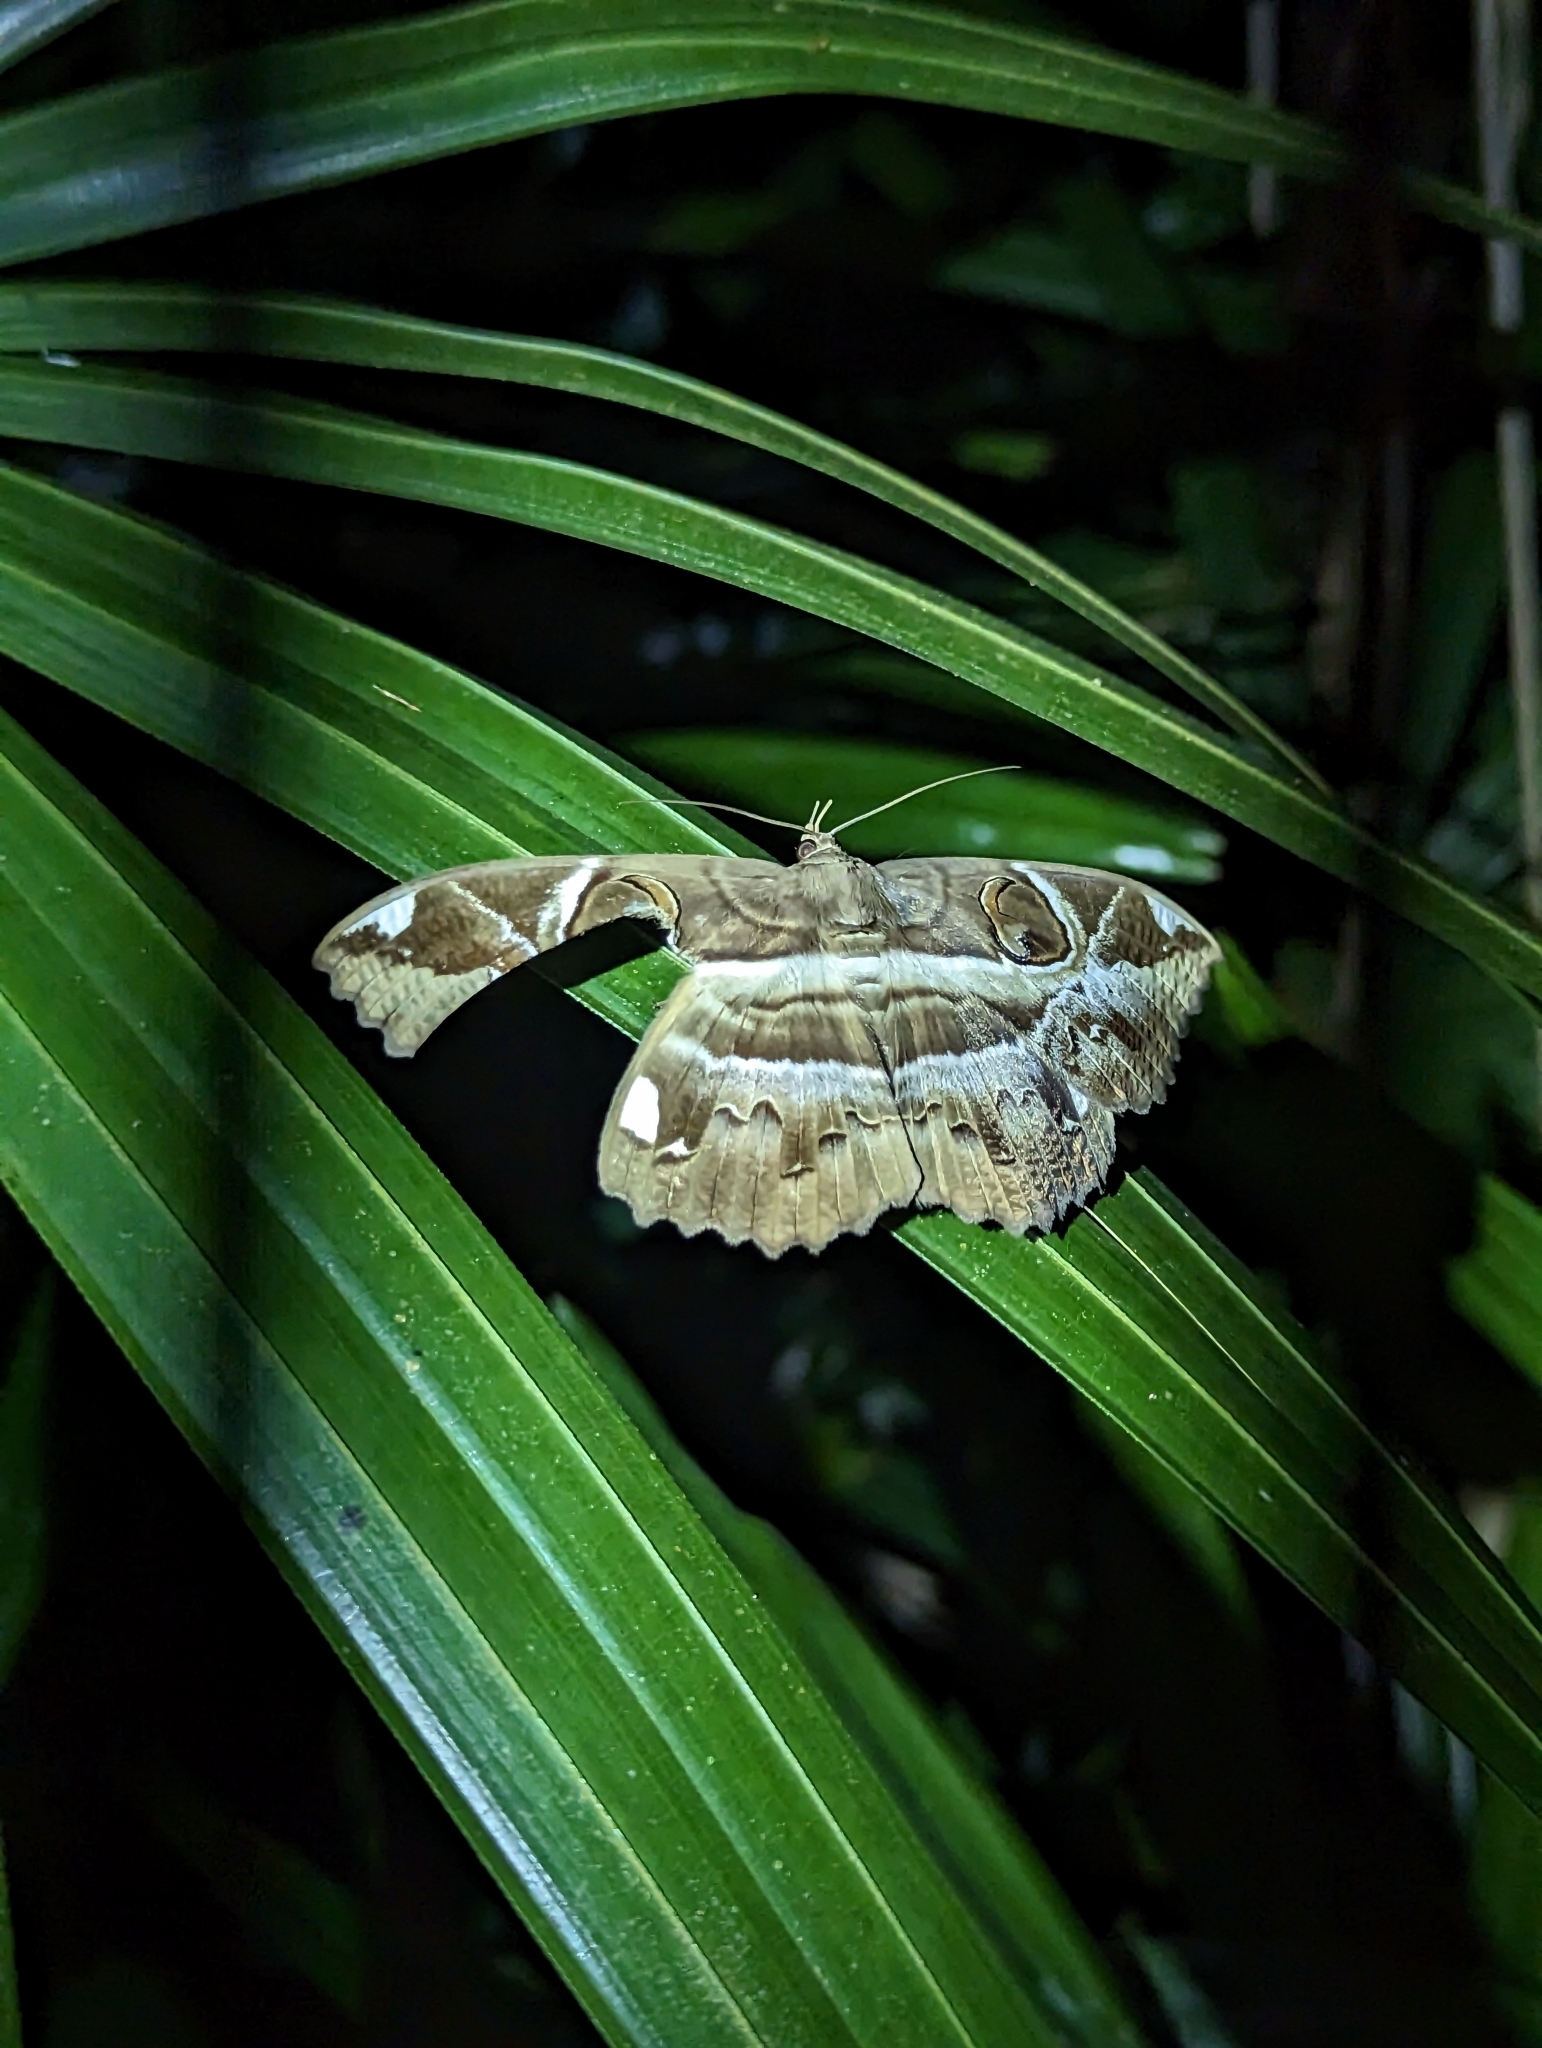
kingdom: Animalia
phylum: Arthropoda
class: Insecta
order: Lepidoptera
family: Erebidae
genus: Erebus
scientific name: Erebus ephesperis
